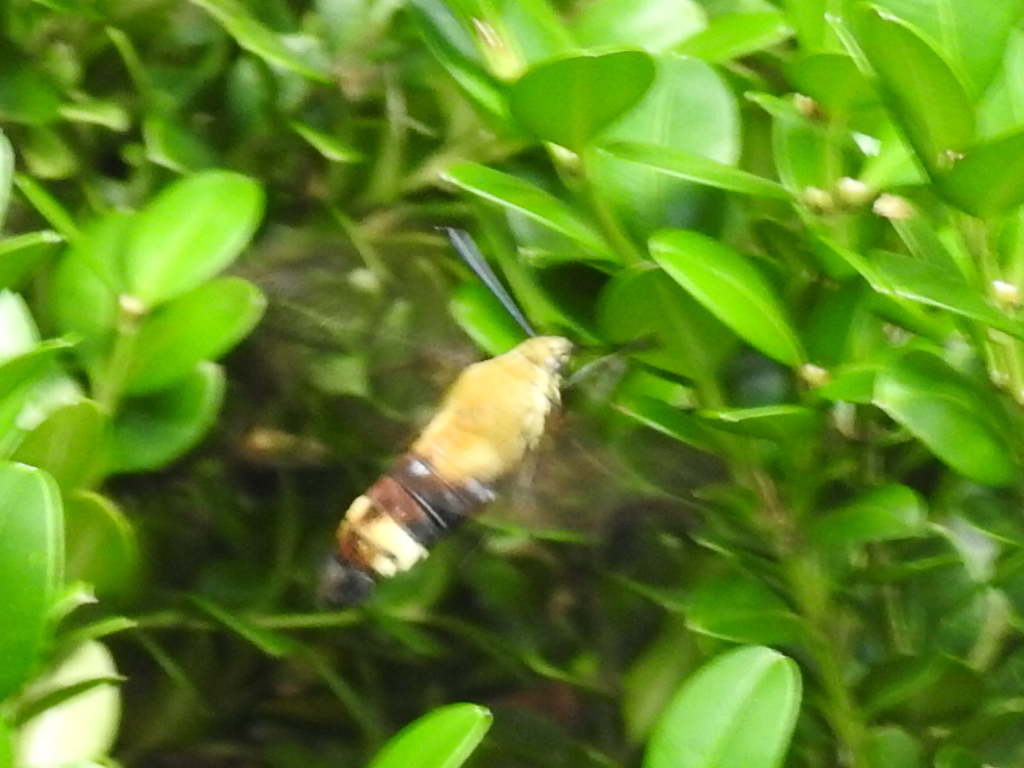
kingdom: Animalia
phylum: Arthropoda
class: Insecta
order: Lepidoptera
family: Sphingidae
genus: Hemaris
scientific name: Hemaris diffinis
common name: Bumblebee moth
